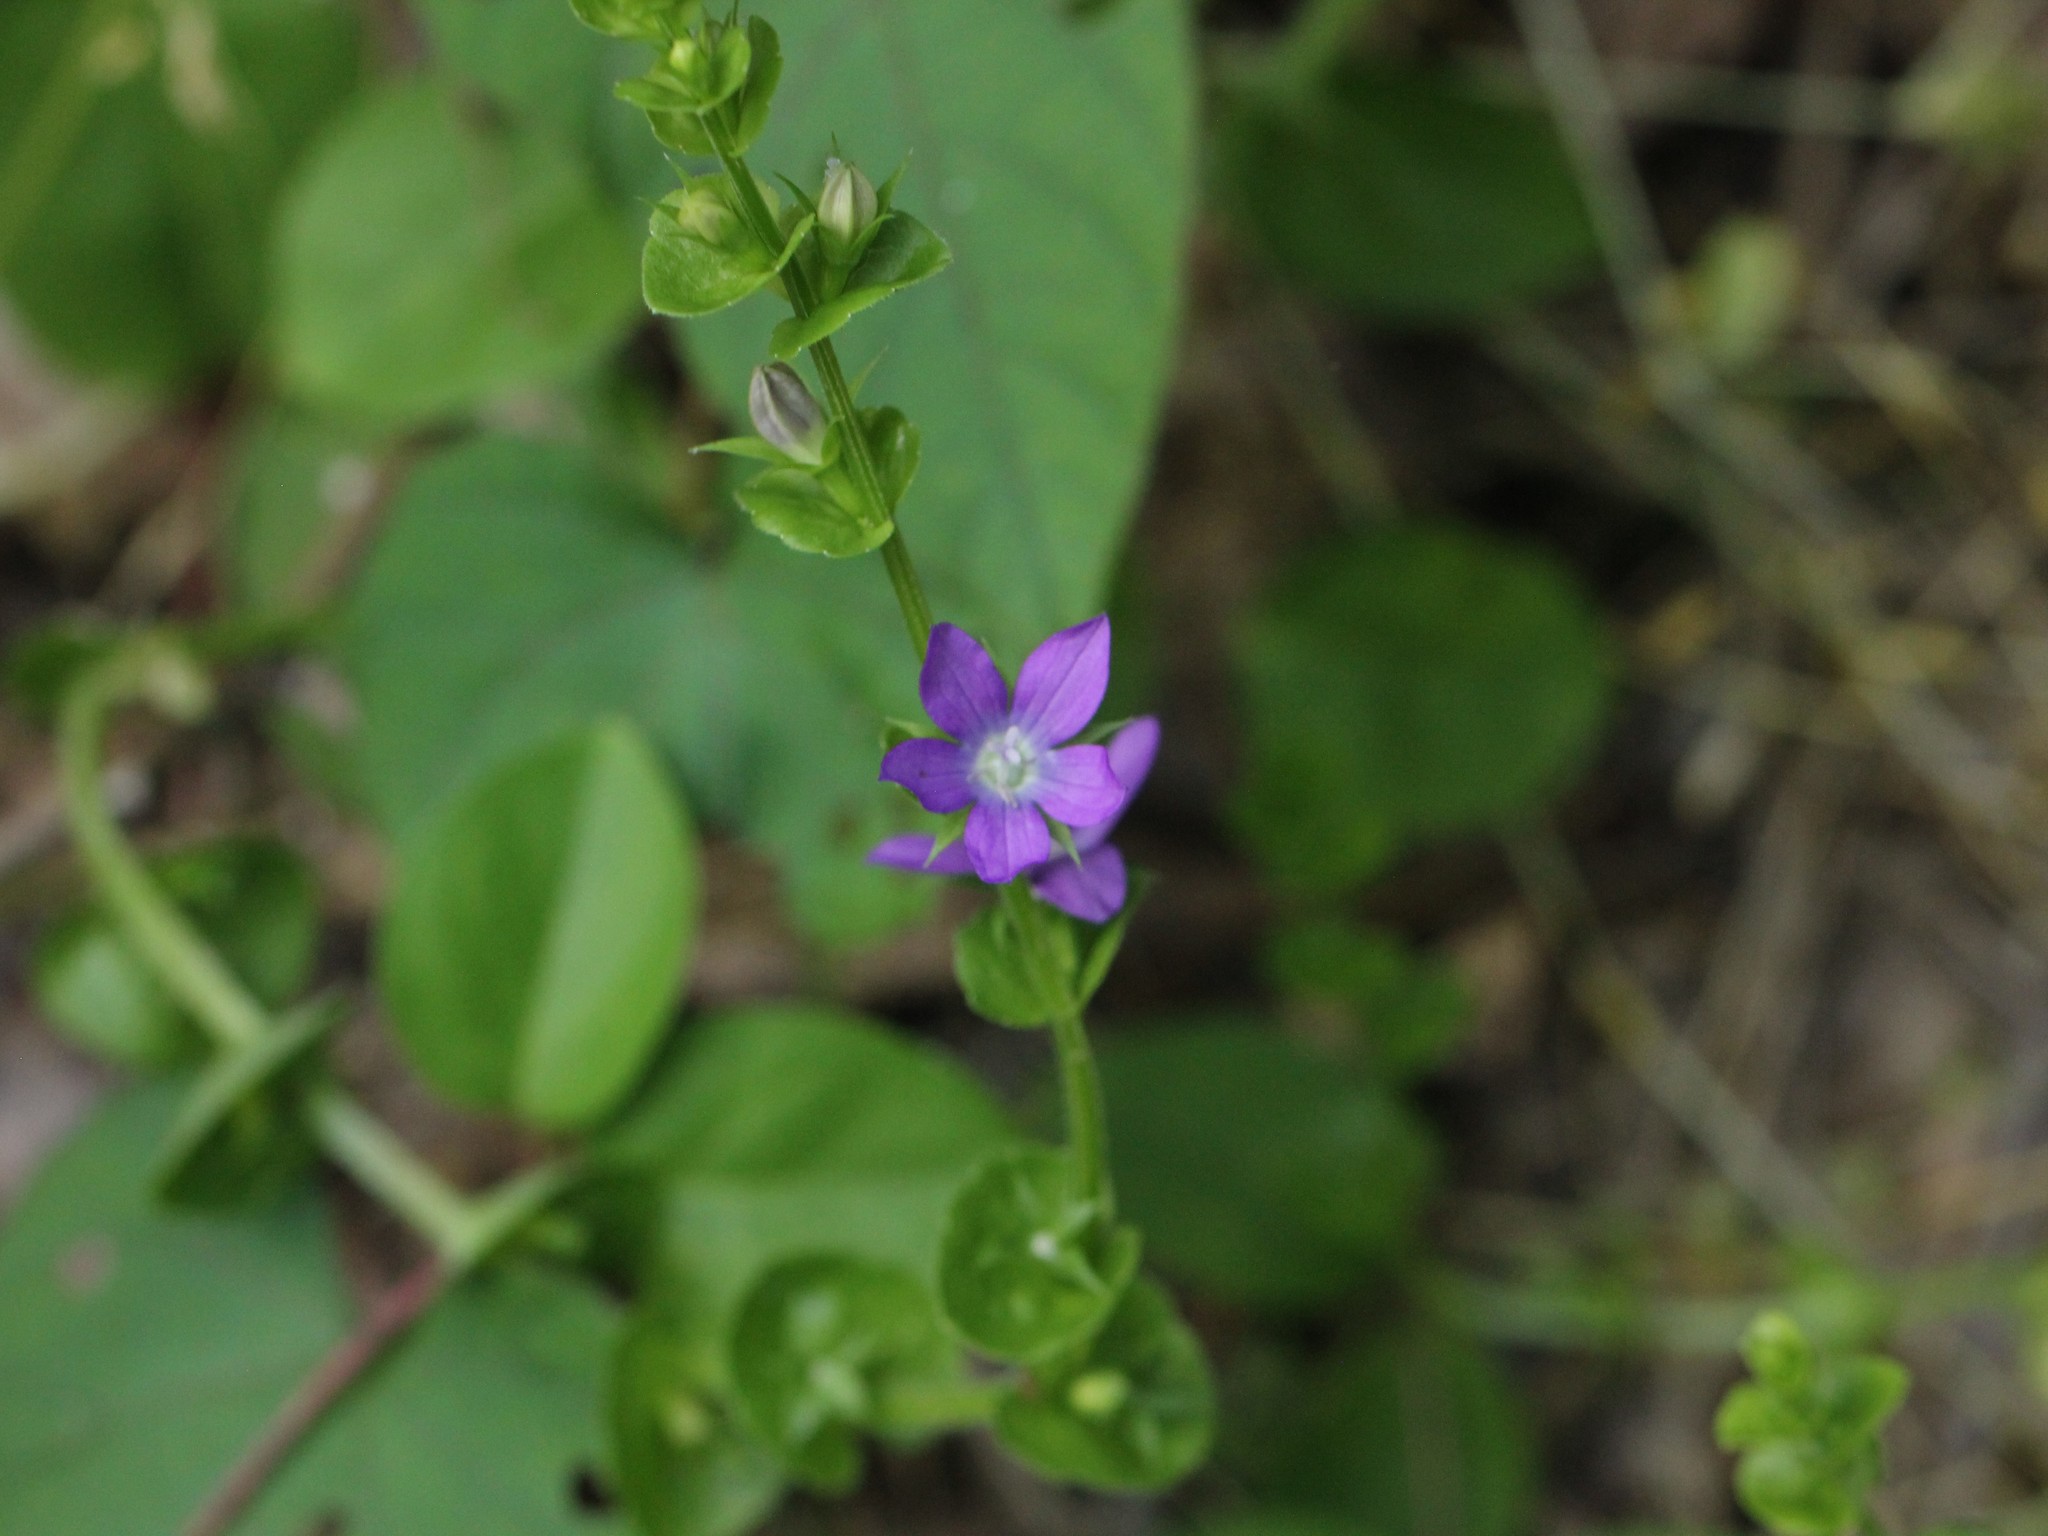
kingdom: Plantae
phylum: Tracheophyta
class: Magnoliopsida
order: Asterales
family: Campanulaceae
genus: Triodanis
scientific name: Triodanis perfoliata
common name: Clasping venus' looking-glass
